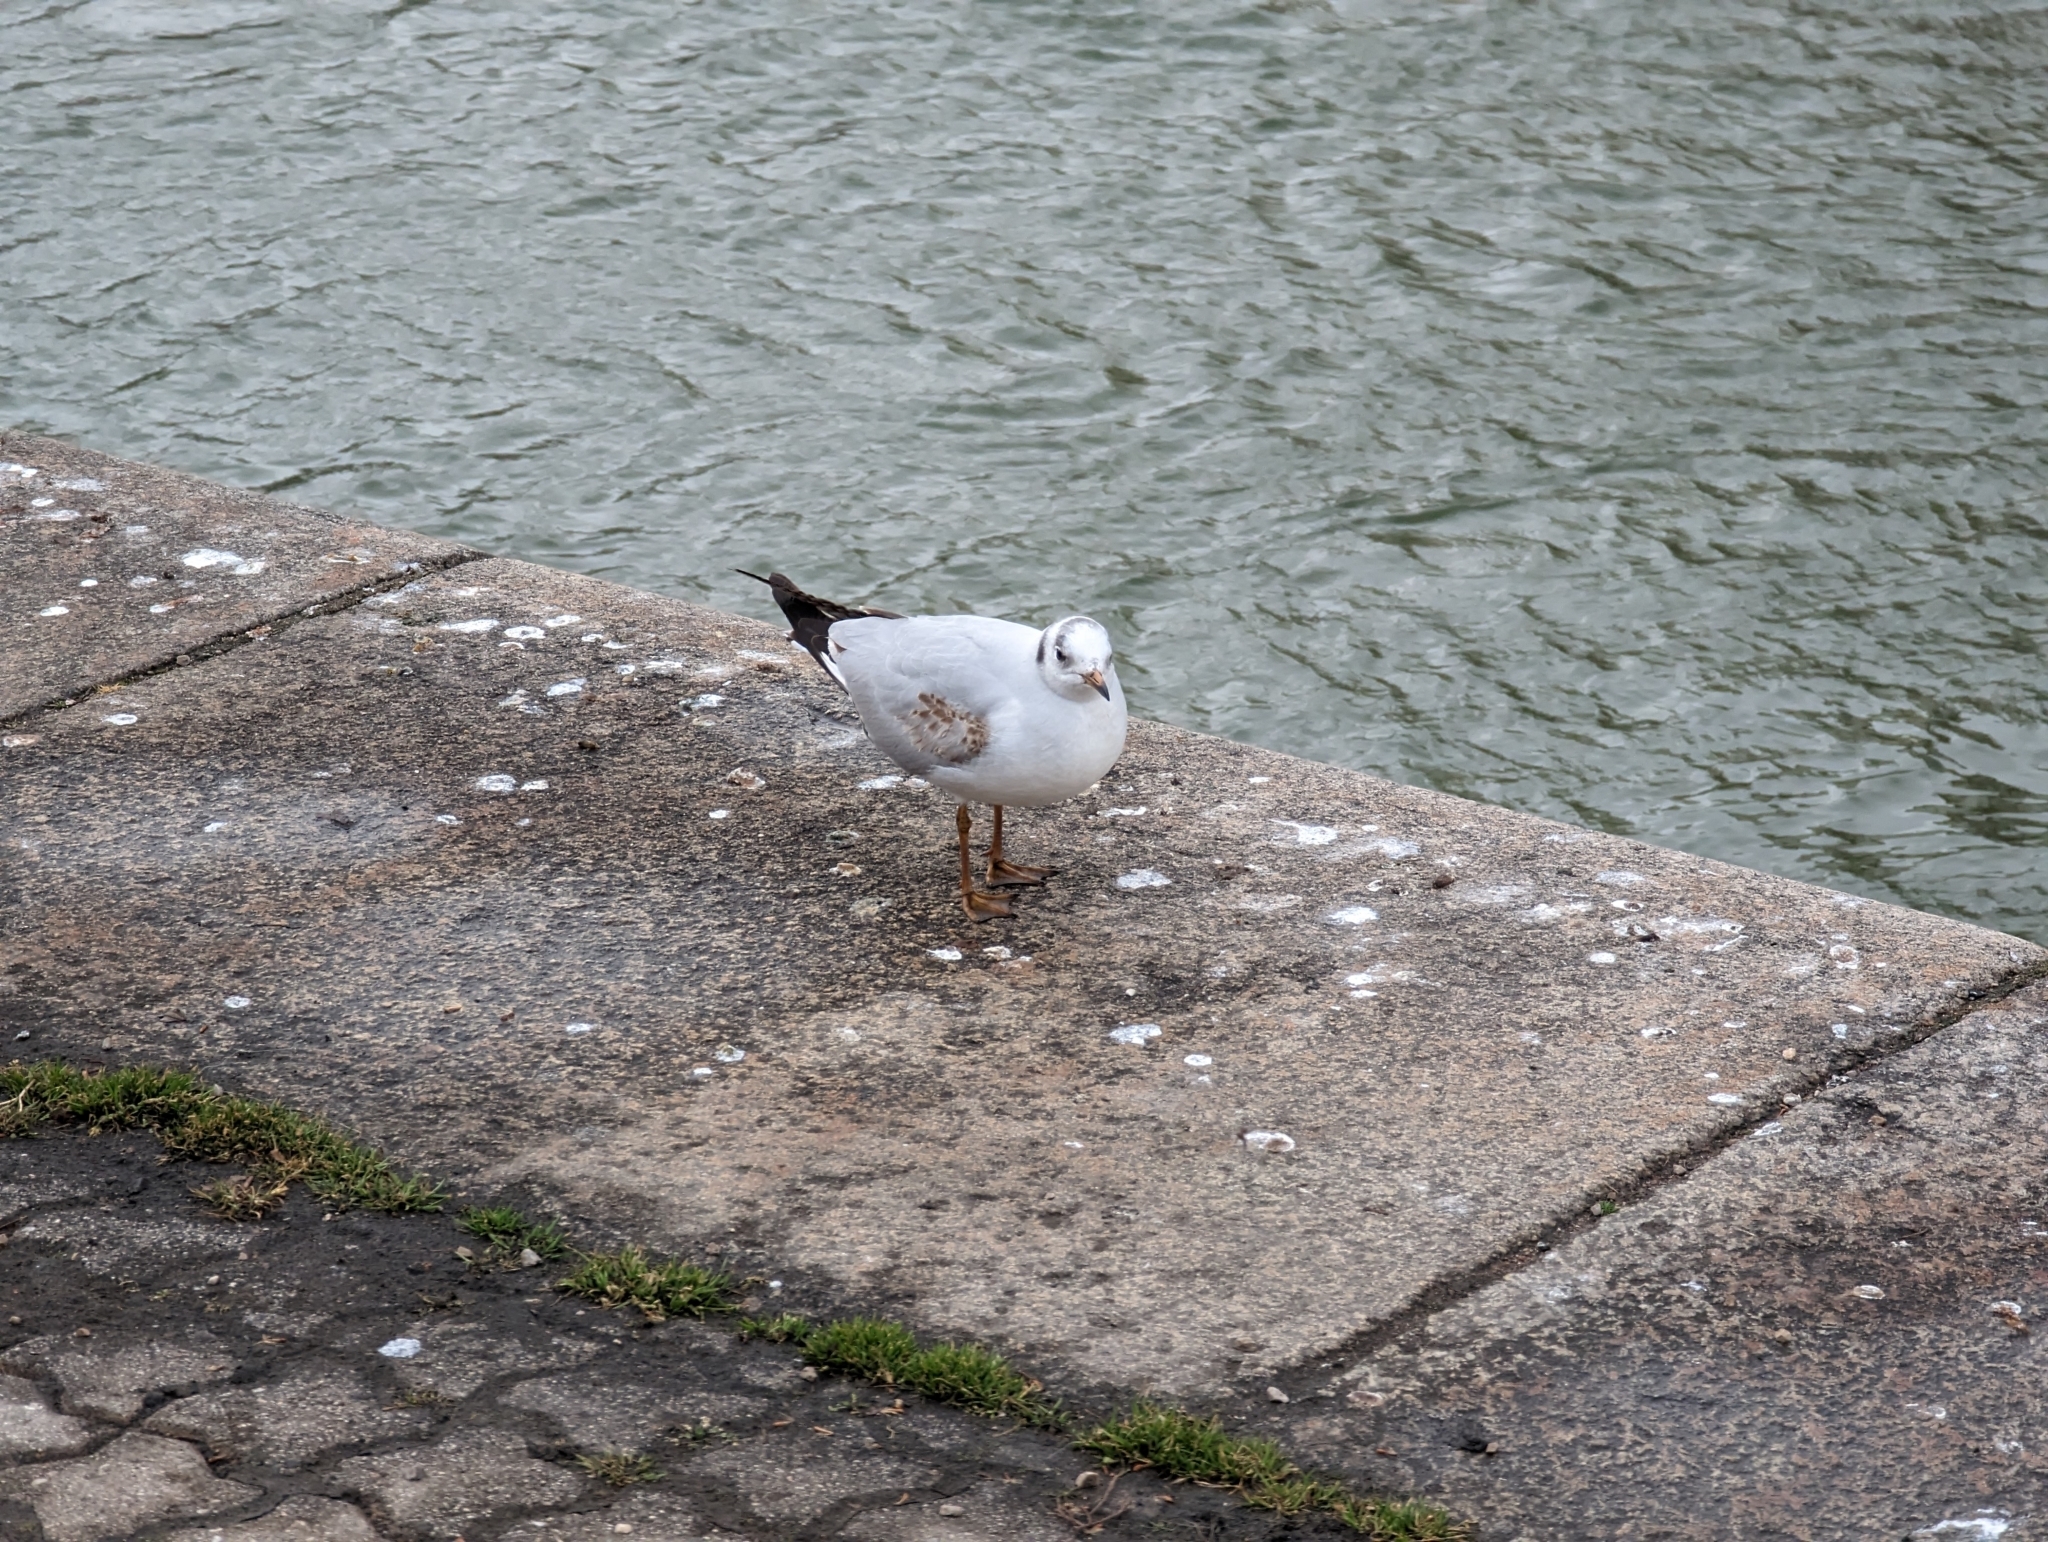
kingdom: Animalia
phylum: Chordata
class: Aves
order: Charadriiformes
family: Laridae
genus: Chroicocephalus
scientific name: Chroicocephalus ridibundus
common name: Black-headed gull
